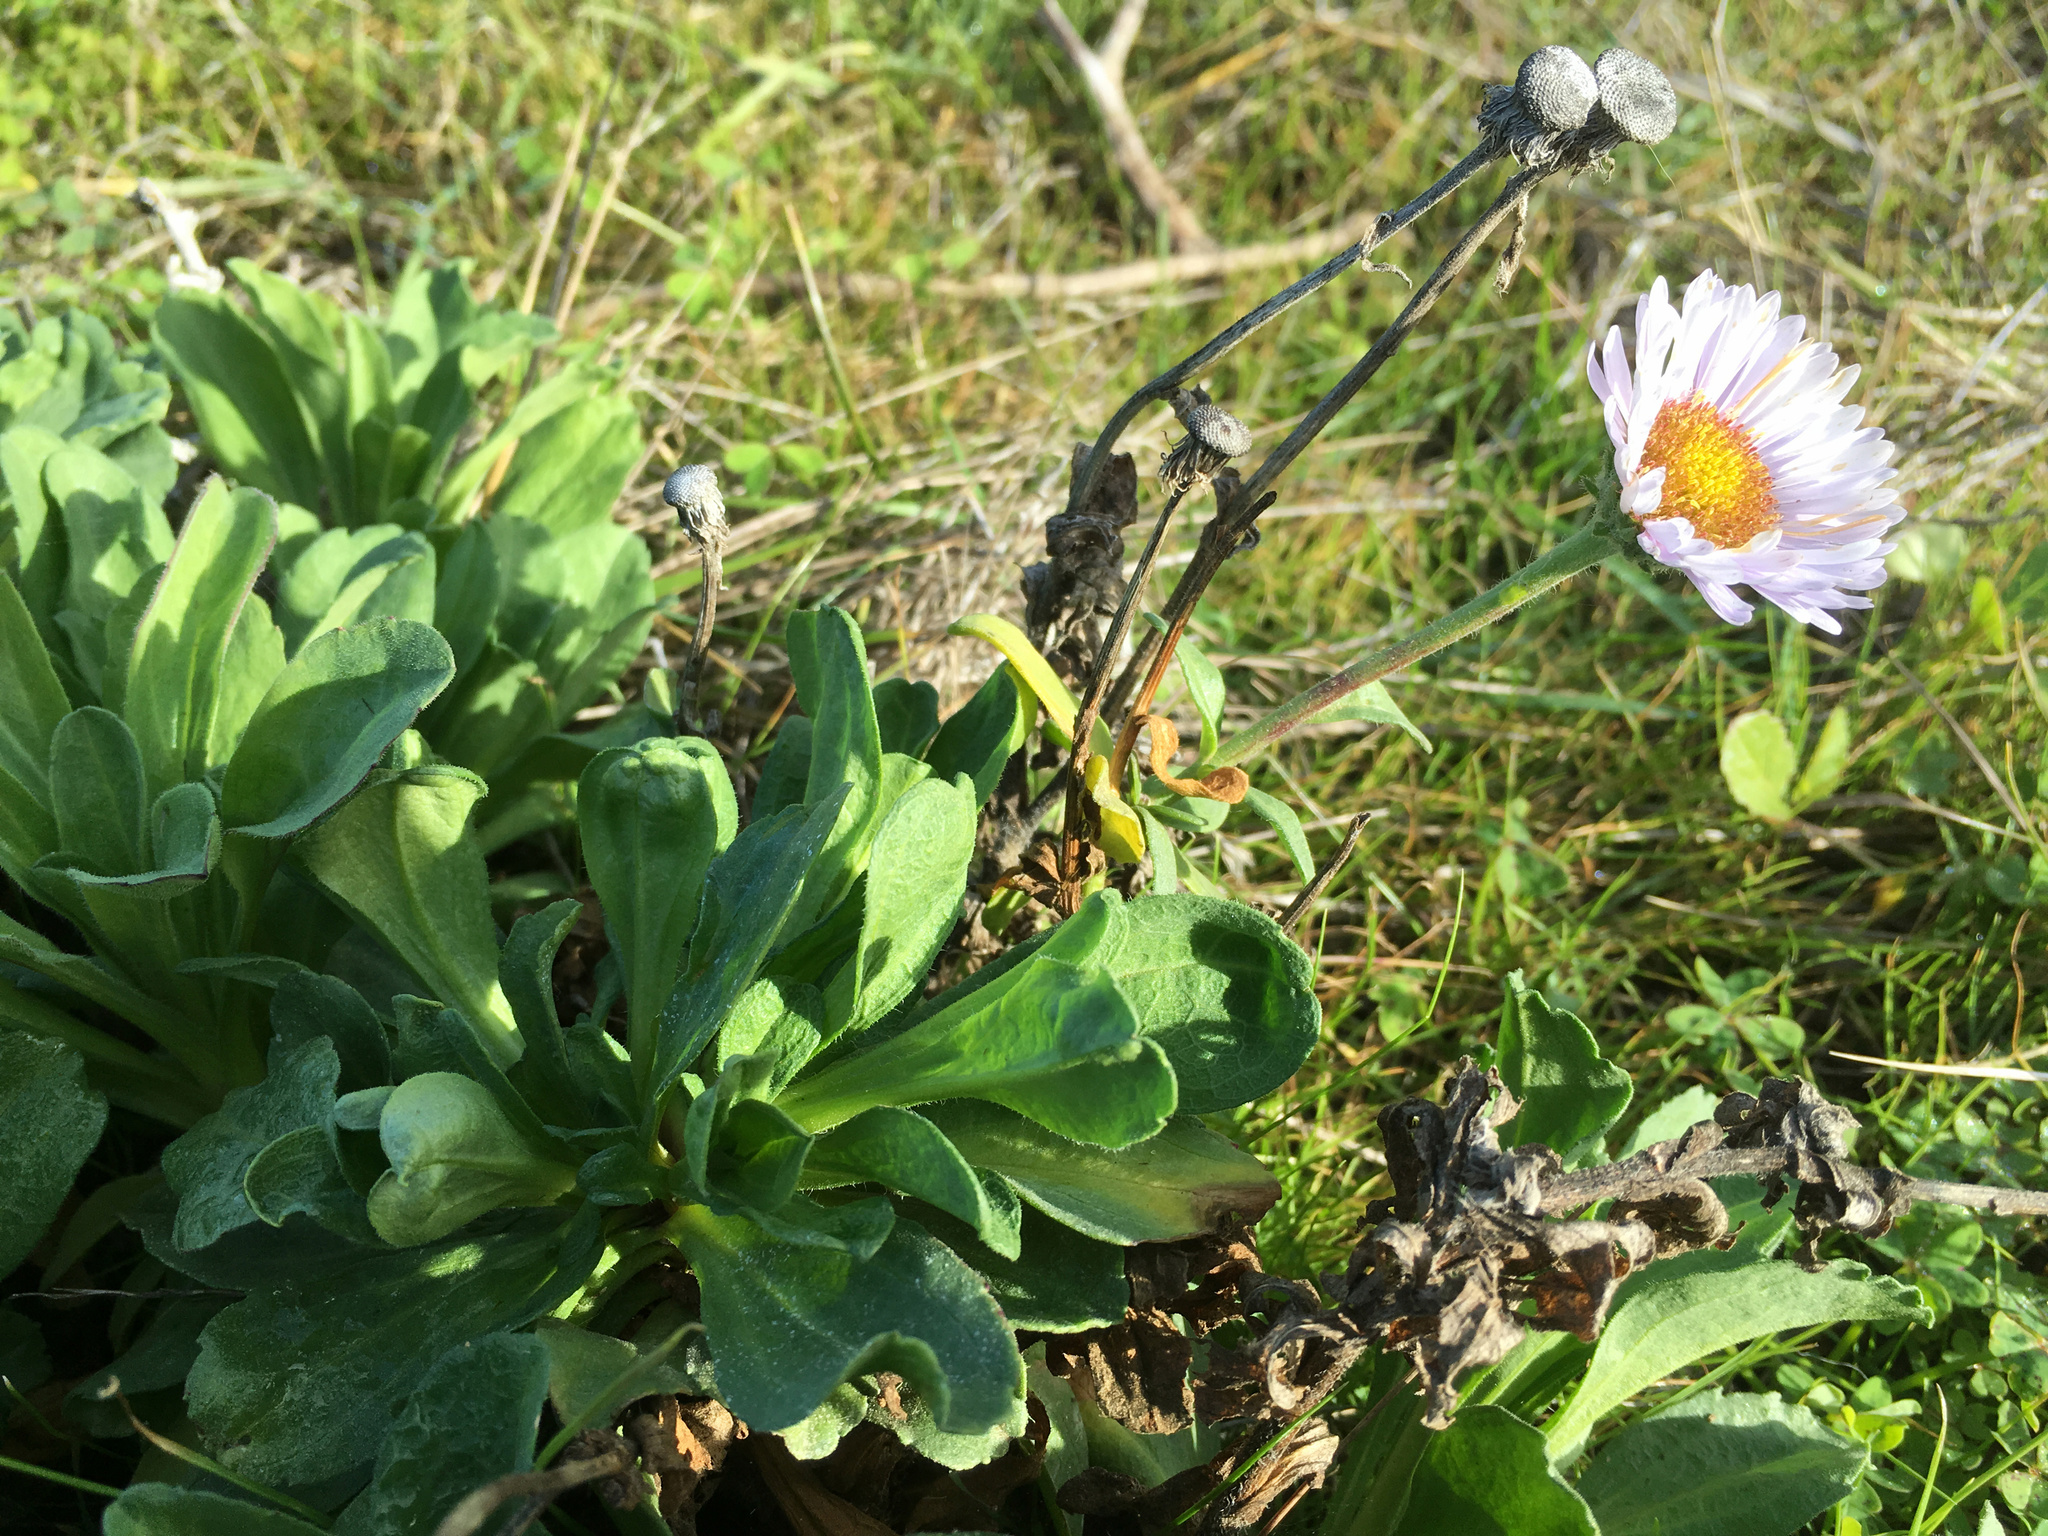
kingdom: Plantae
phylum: Tracheophyta
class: Magnoliopsida
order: Asterales
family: Asteraceae
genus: Erigeron
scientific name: Erigeron glaucus
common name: Seaside daisy
